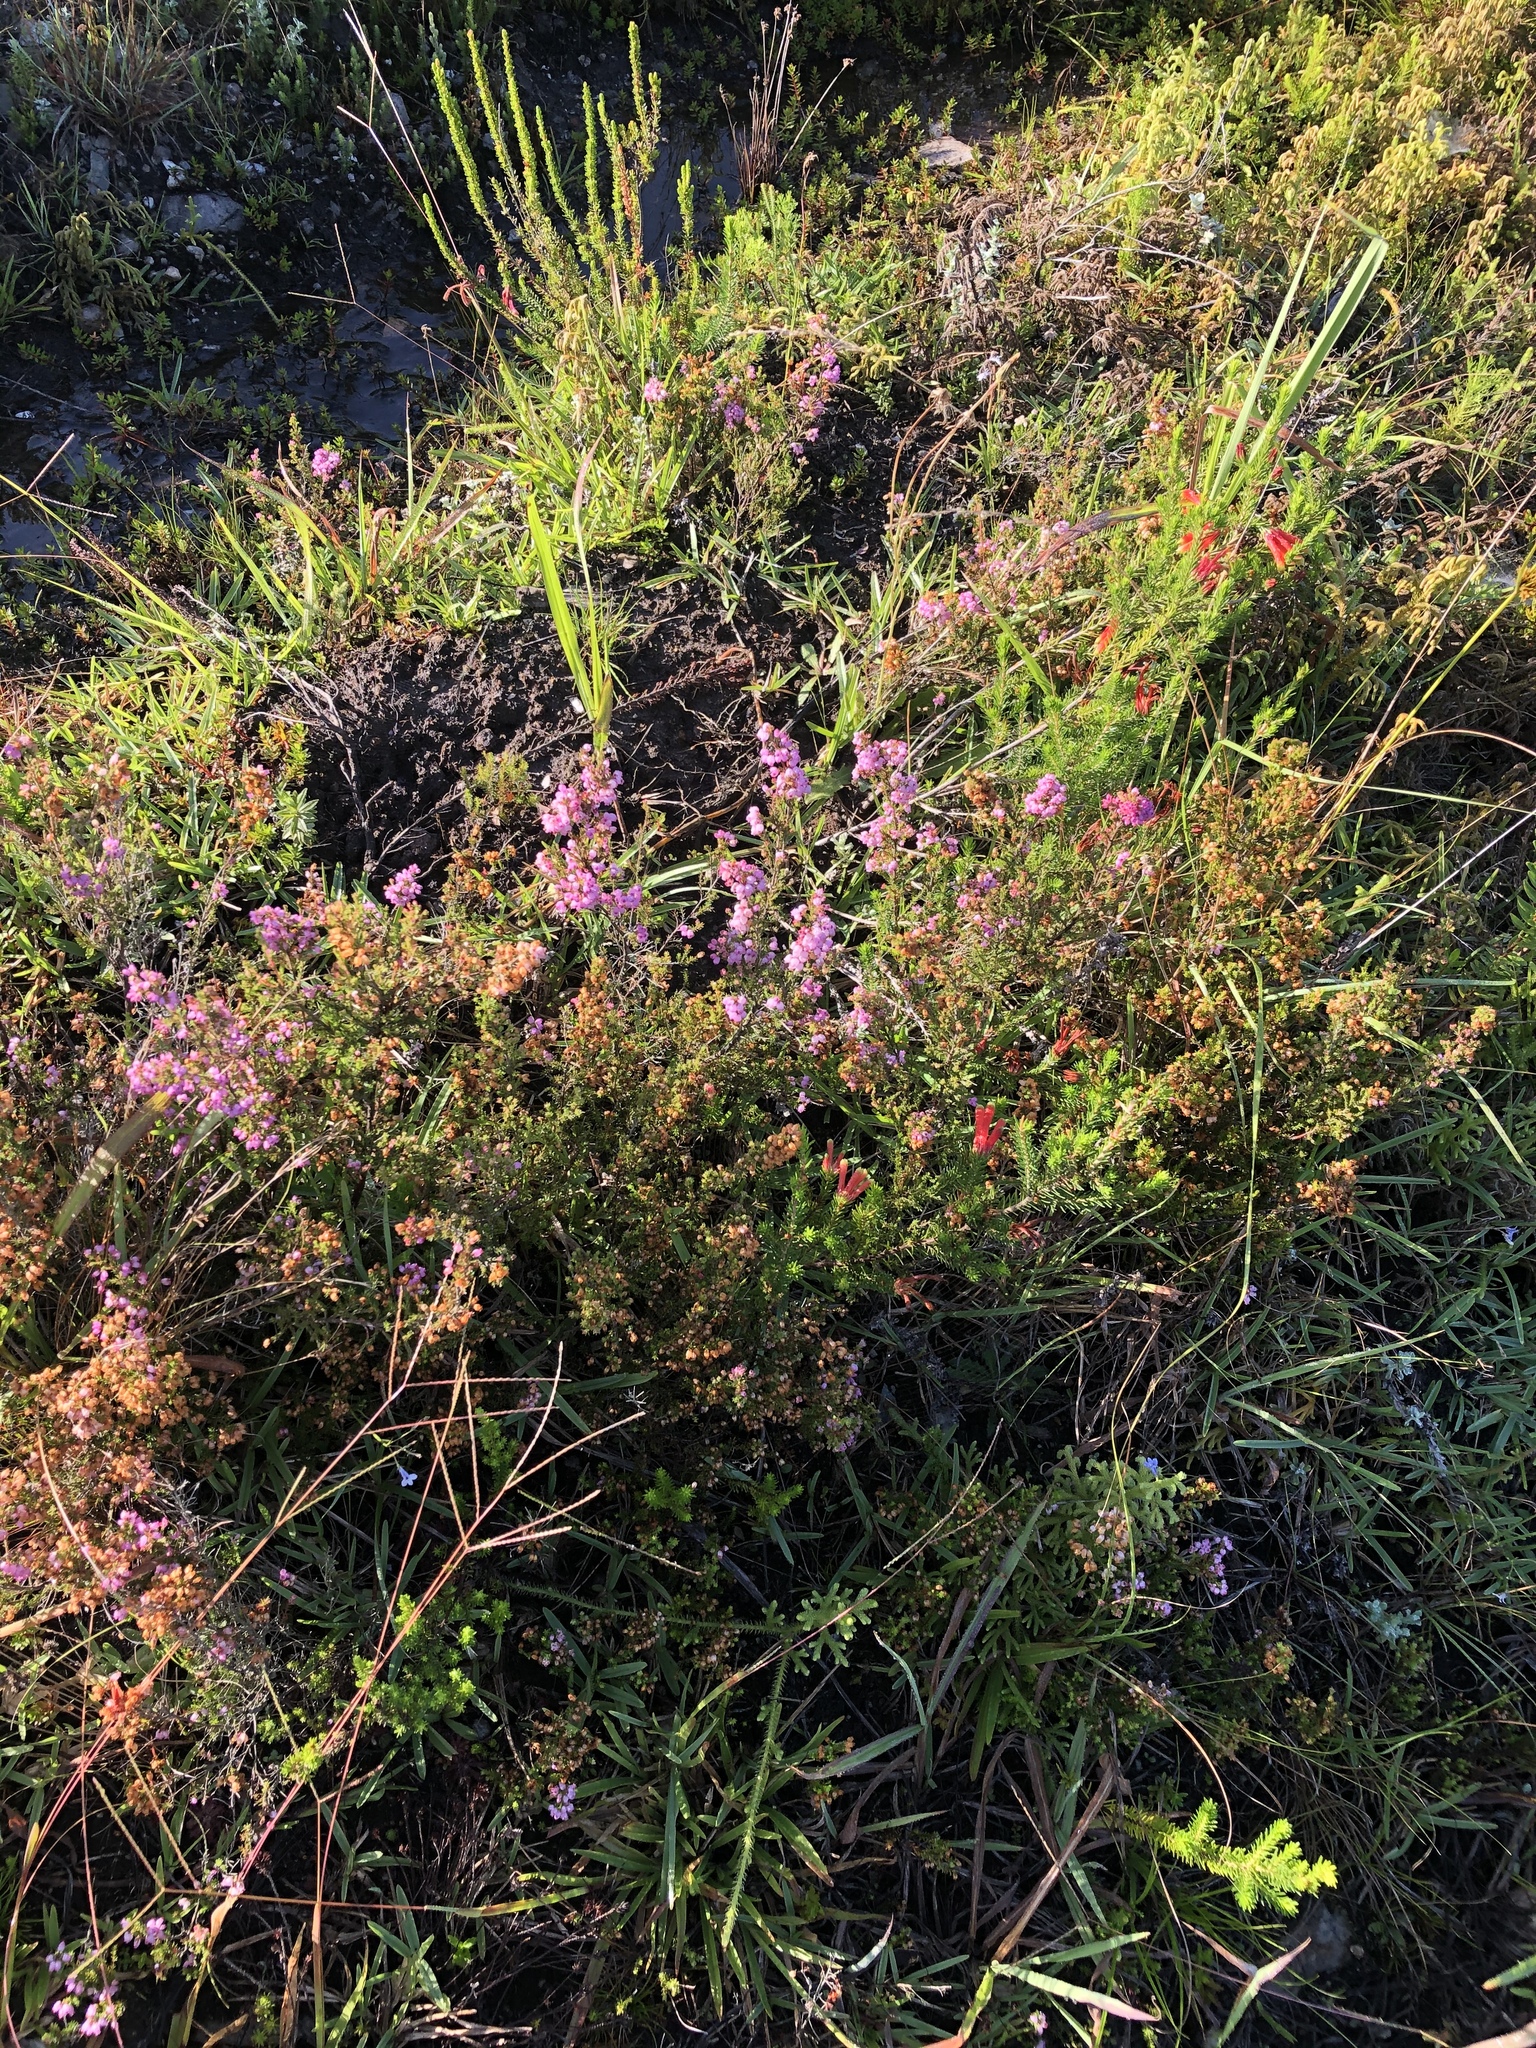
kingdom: Plantae
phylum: Tracheophyta
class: Magnoliopsida
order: Ericales
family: Ericaceae
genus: Erica
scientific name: Erica gracilis
